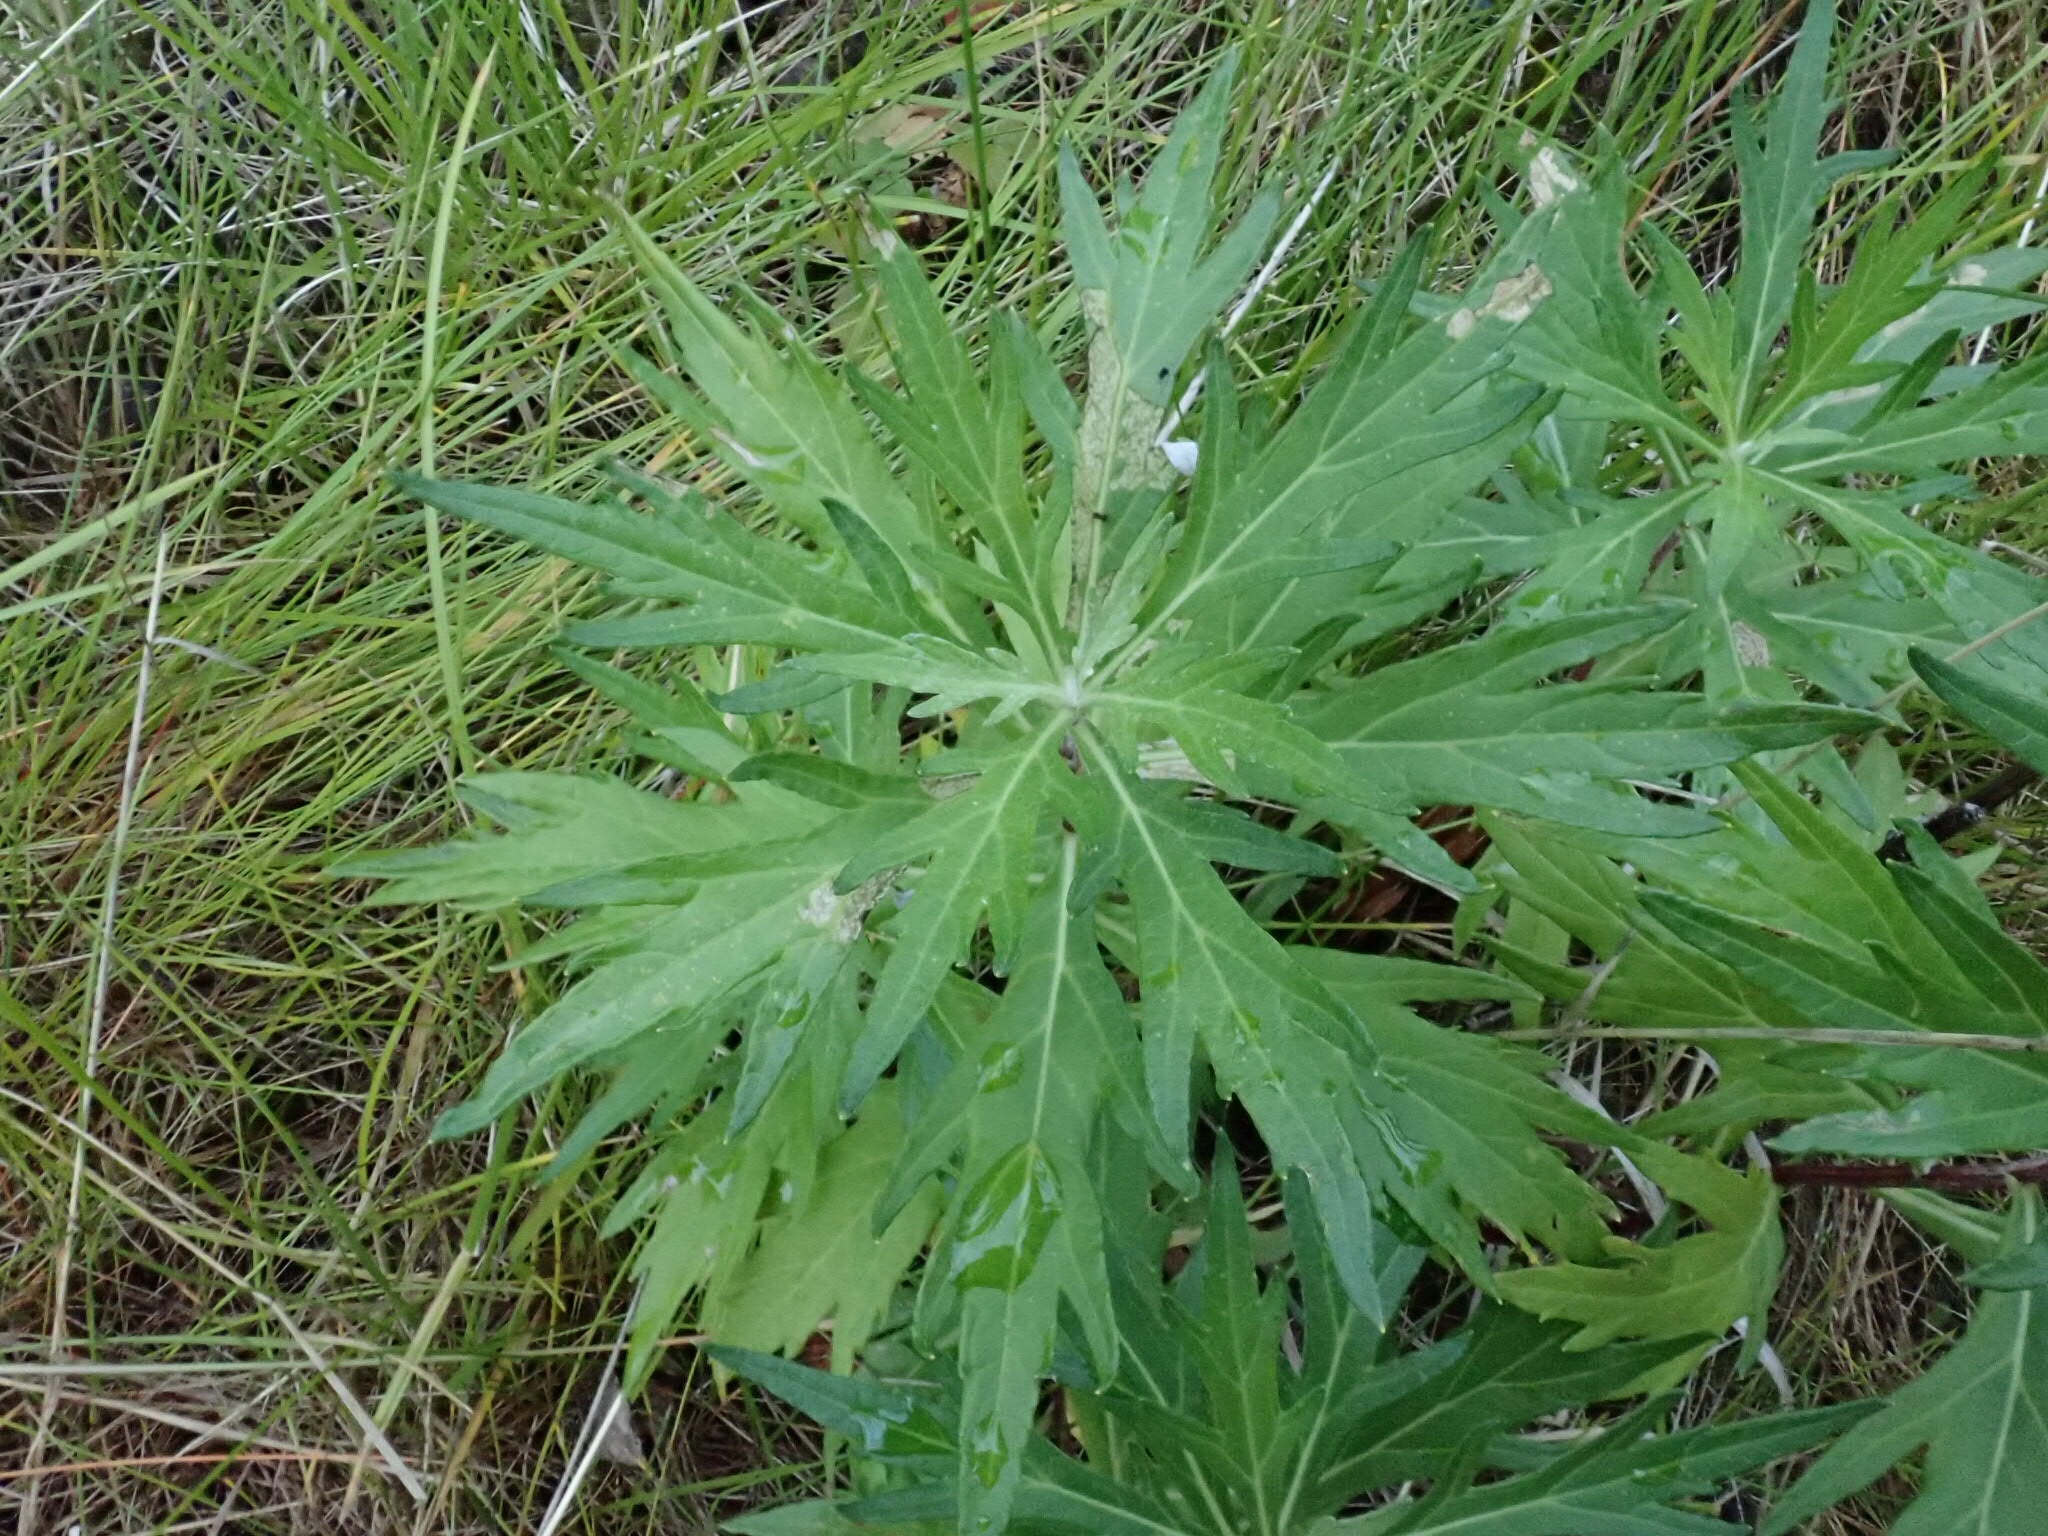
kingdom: Plantae
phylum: Tracheophyta
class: Magnoliopsida
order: Asterales
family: Asteraceae
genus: Artemisia
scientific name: Artemisia tilesii
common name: Aleutian mugwort
